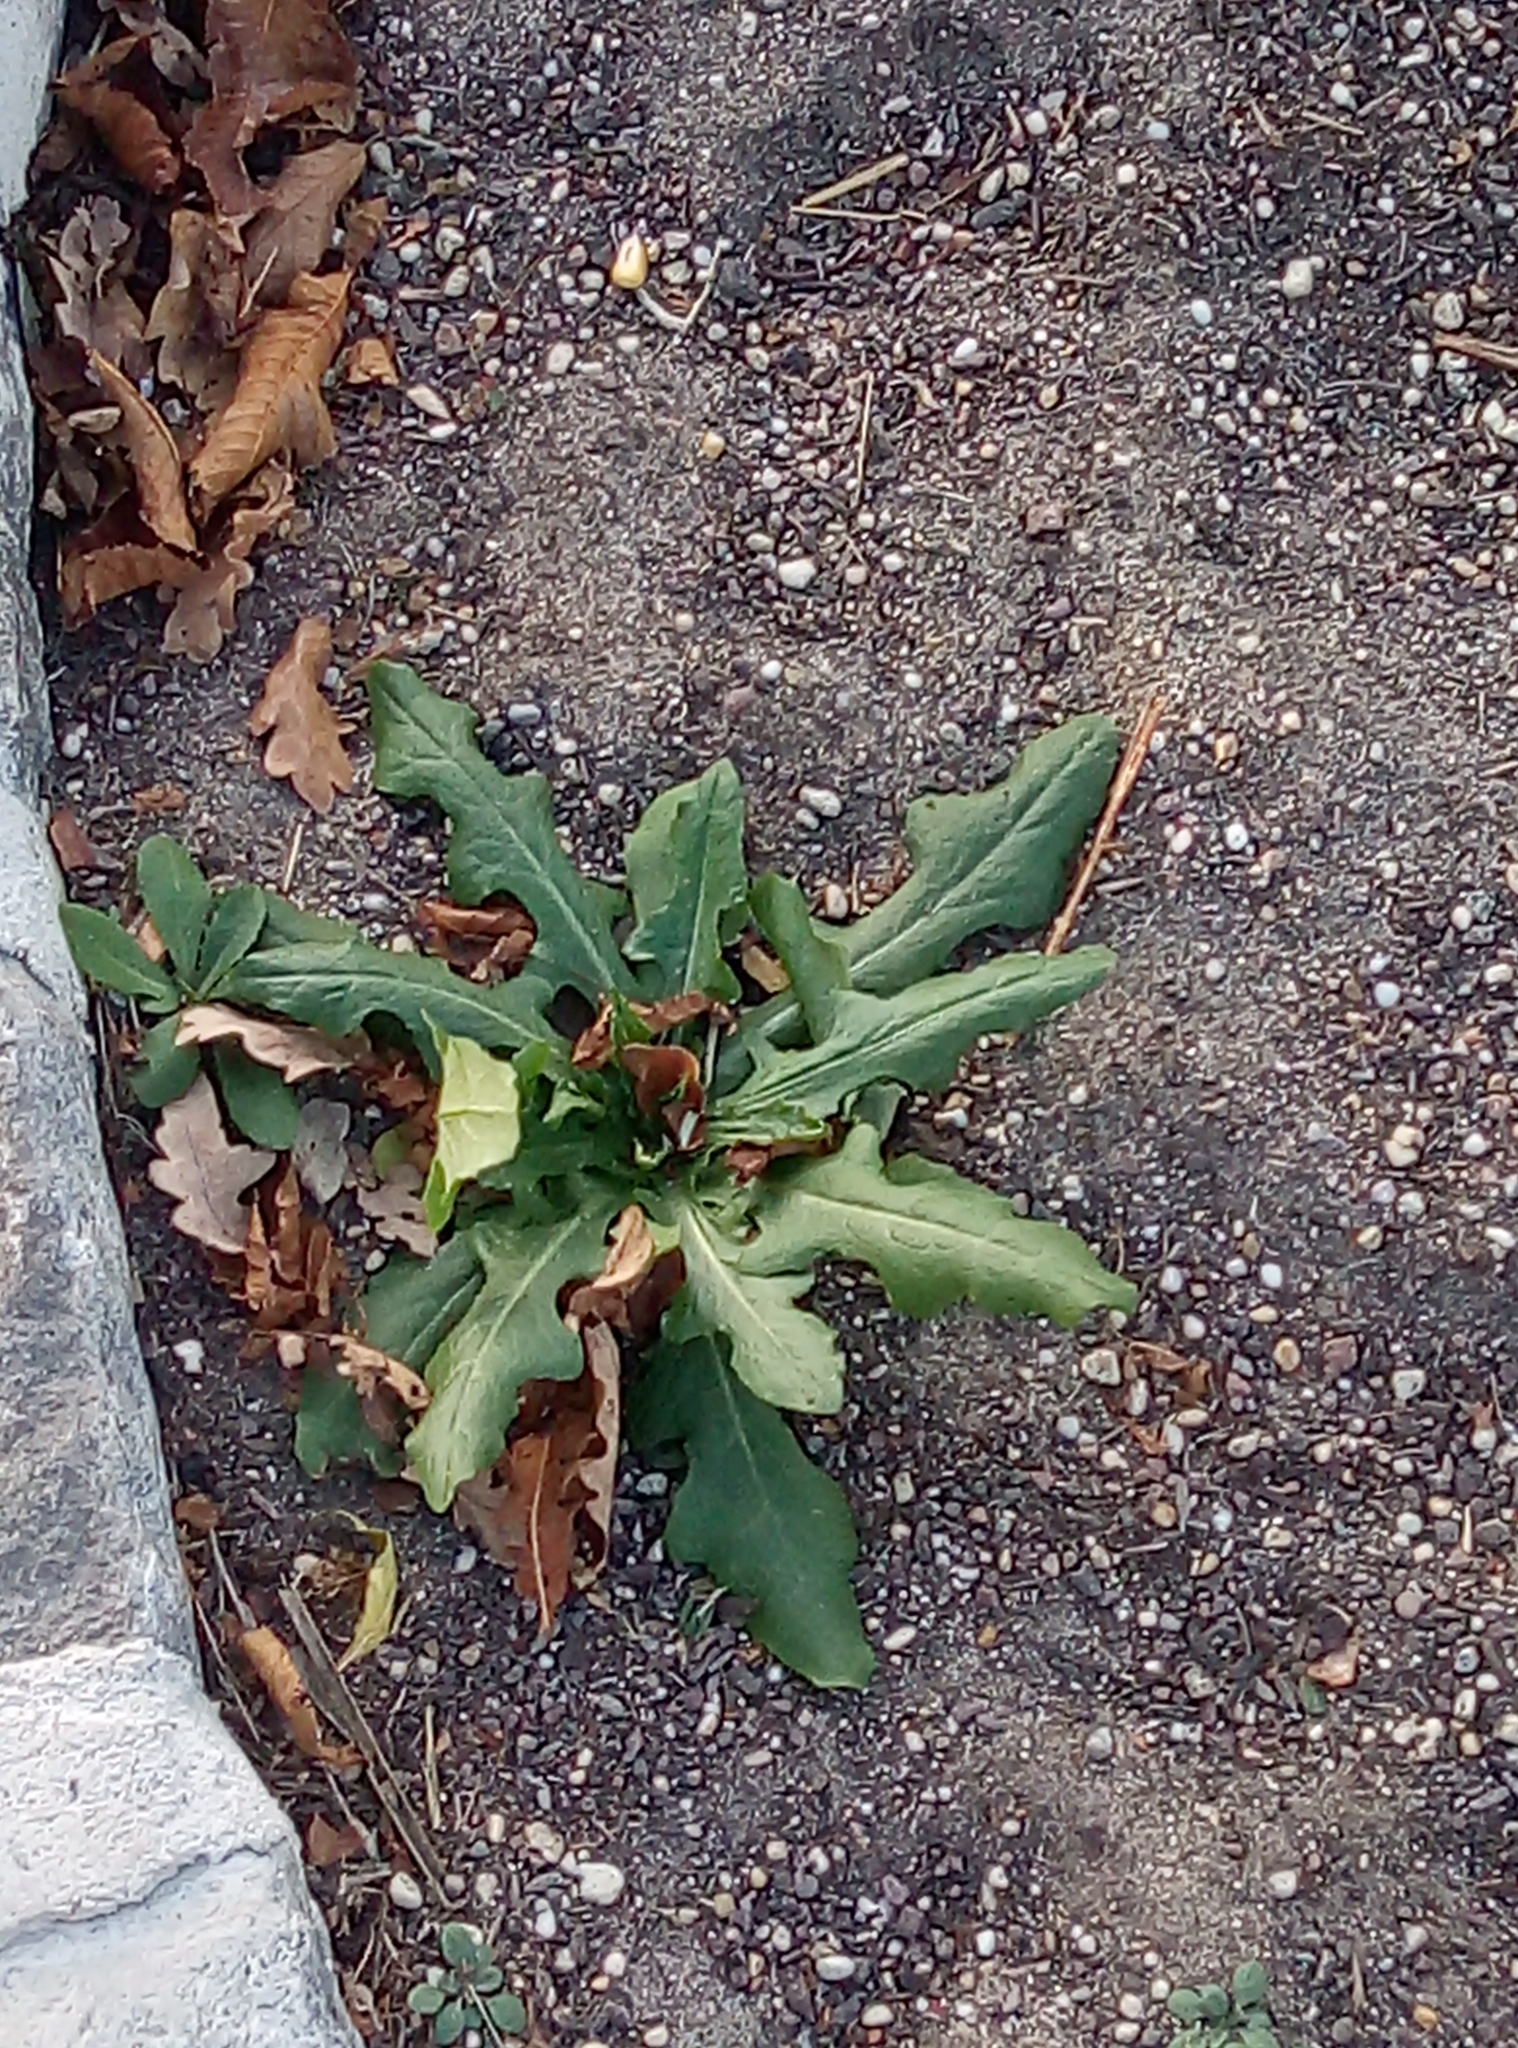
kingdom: Plantae
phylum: Tracheophyta
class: Magnoliopsida
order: Asterales
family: Asteraceae
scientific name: Asteraceae
